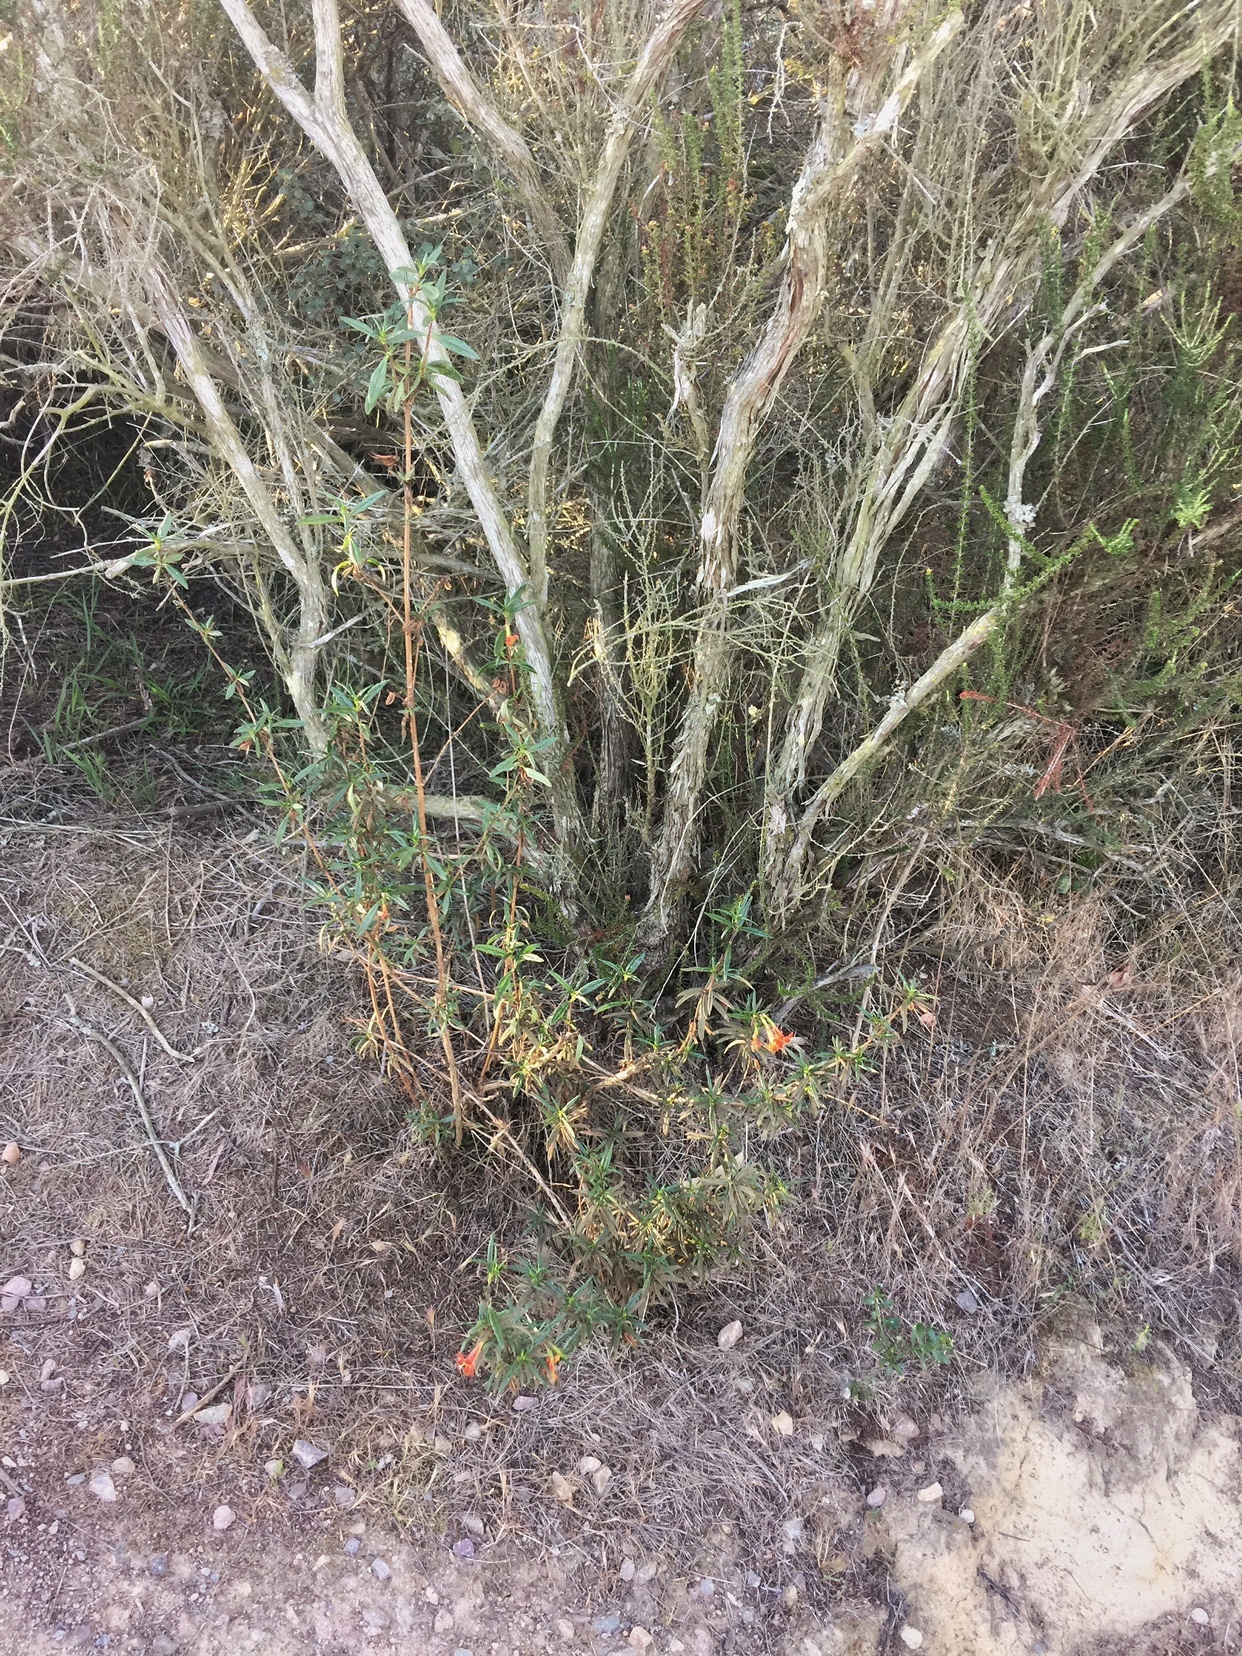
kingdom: Plantae
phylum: Tracheophyta
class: Magnoliopsida
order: Lamiales
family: Phrymaceae
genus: Diplacus
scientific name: Diplacus puniceus
